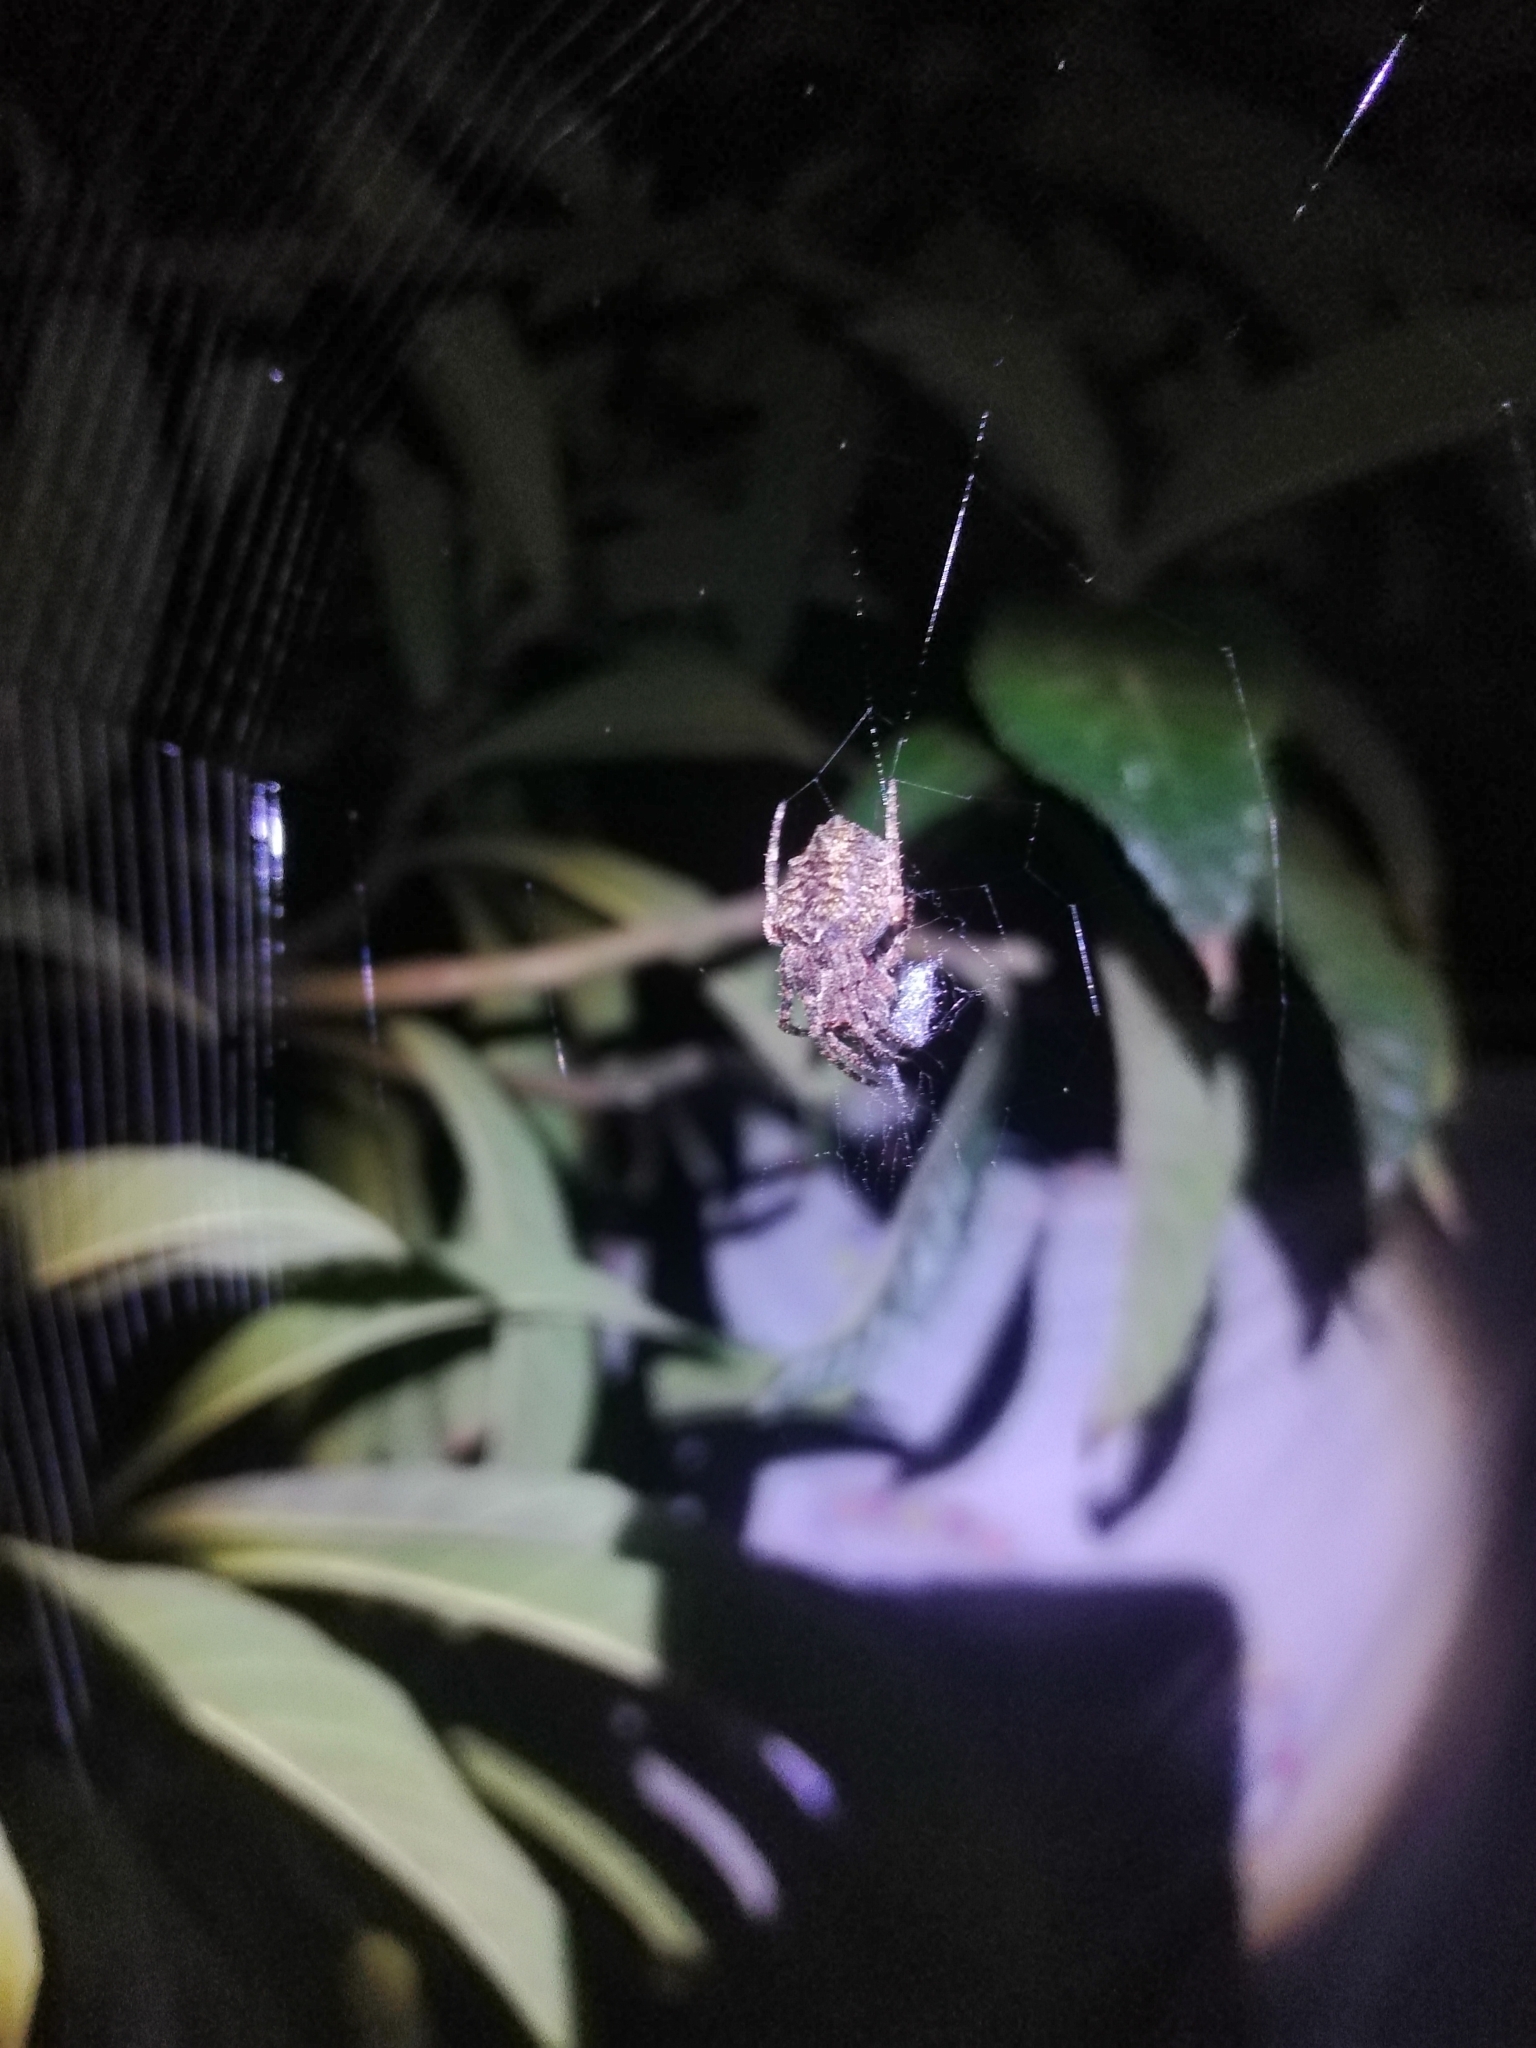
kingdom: Animalia
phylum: Arthropoda
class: Arachnida
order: Araneae
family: Araneidae
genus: Parawixia
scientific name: Parawixia audax
